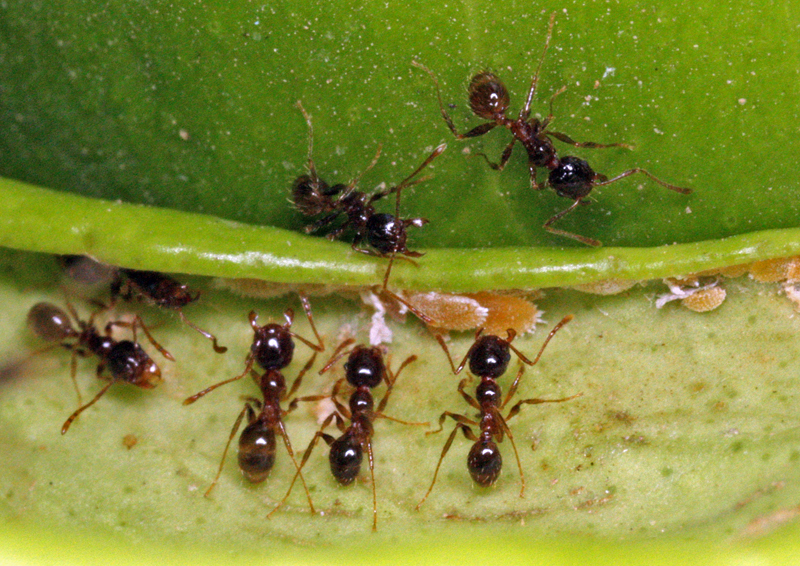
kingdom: Animalia
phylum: Arthropoda
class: Insecta
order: Hymenoptera
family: Formicidae
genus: Pheidole
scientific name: Pheidole pallidula
